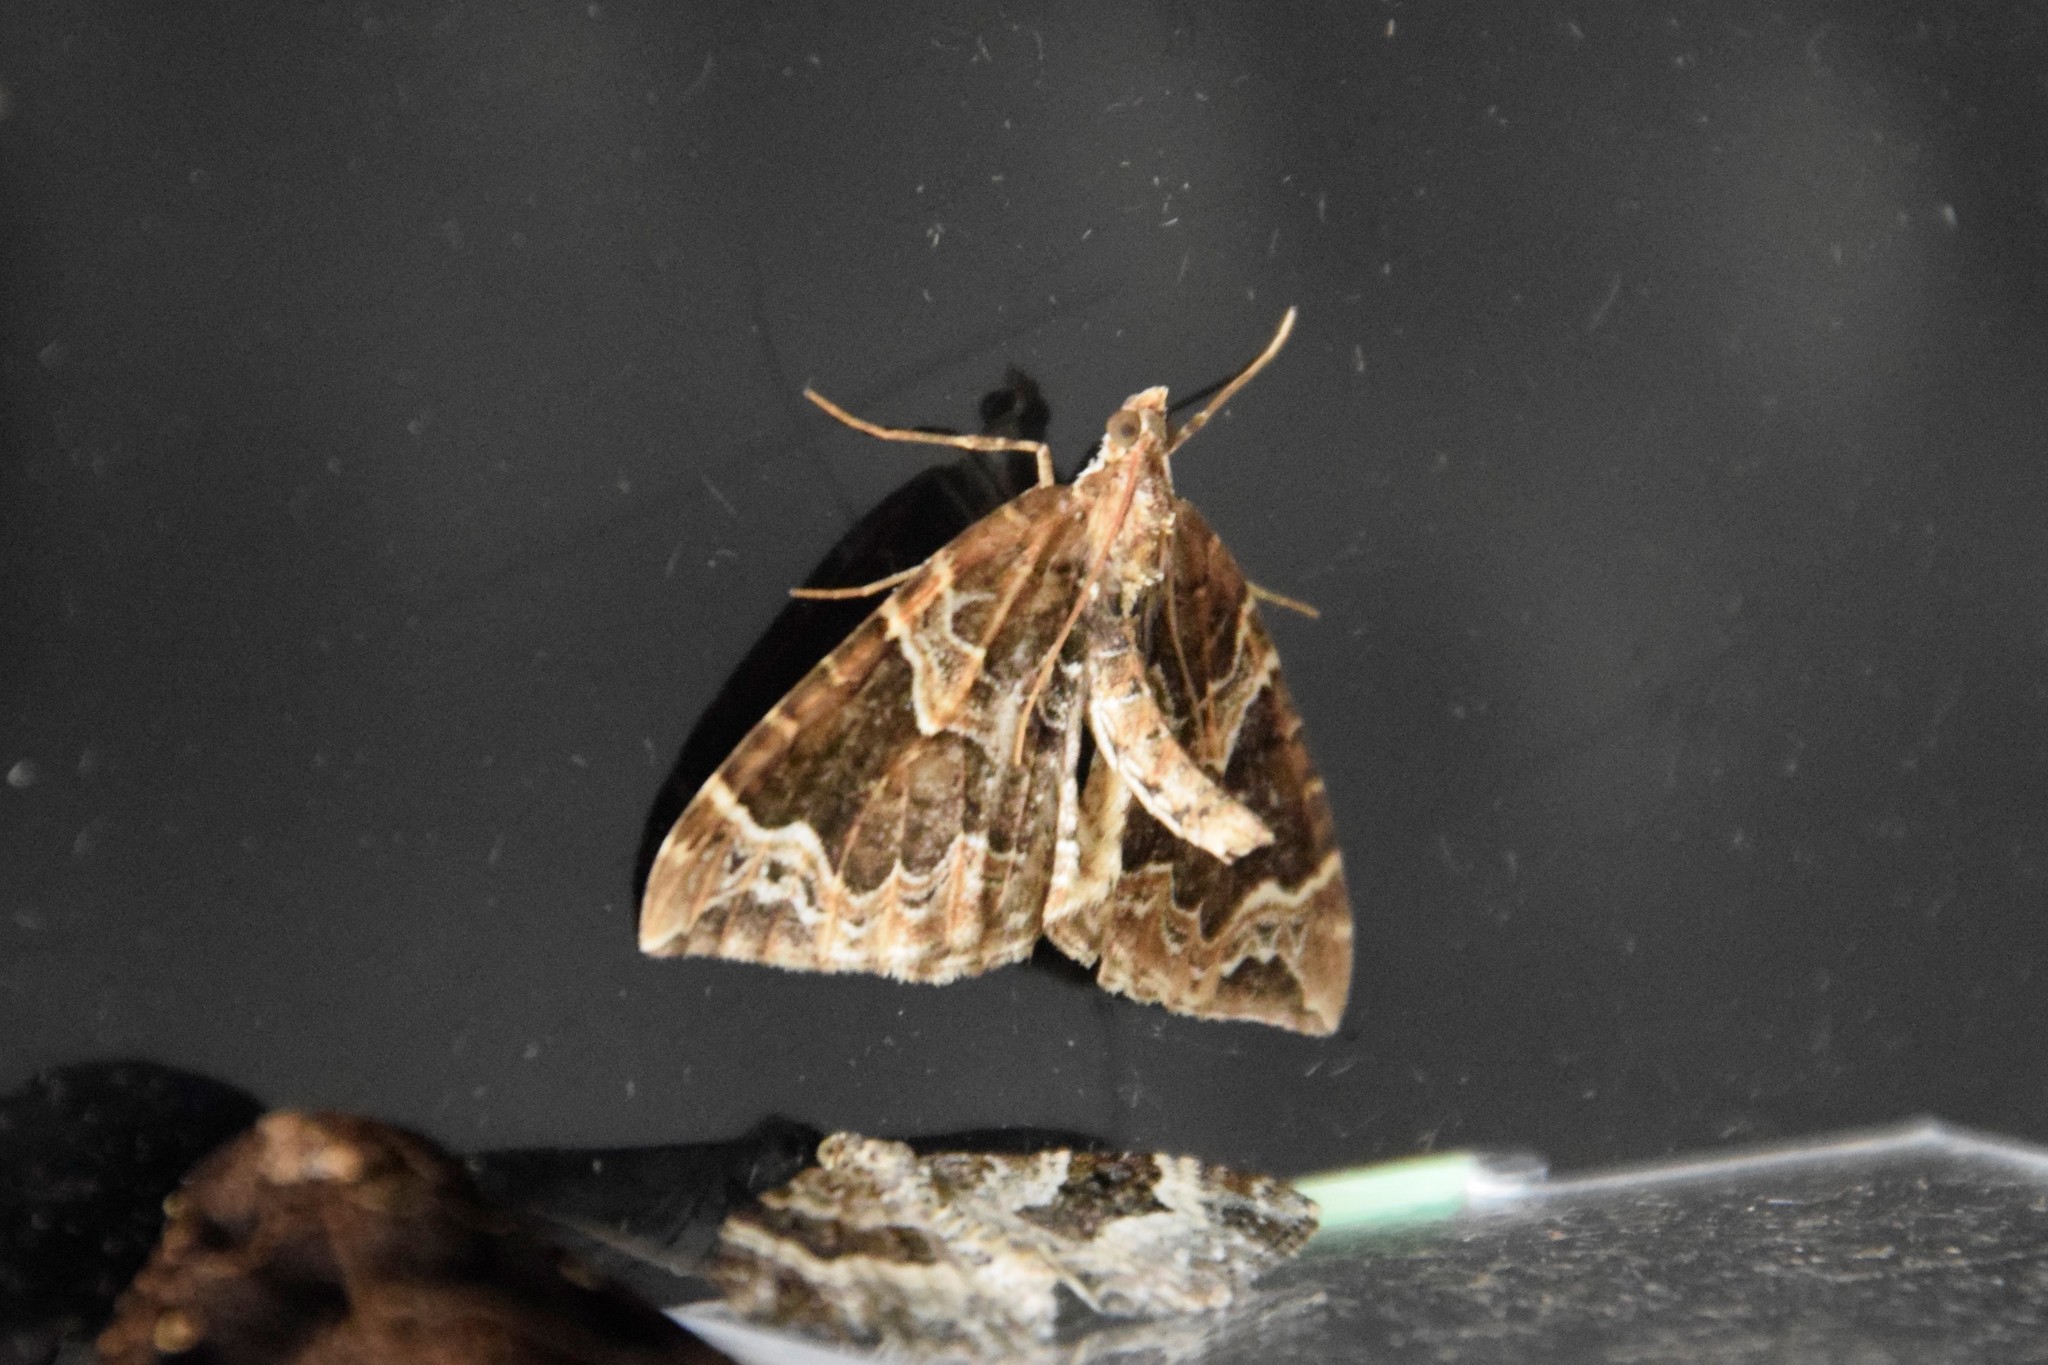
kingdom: Animalia
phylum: Arthropoda
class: Insecta
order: Lepidoptera
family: Geometridae
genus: Eulithis
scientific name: Eulithis prunata
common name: Phoenix
